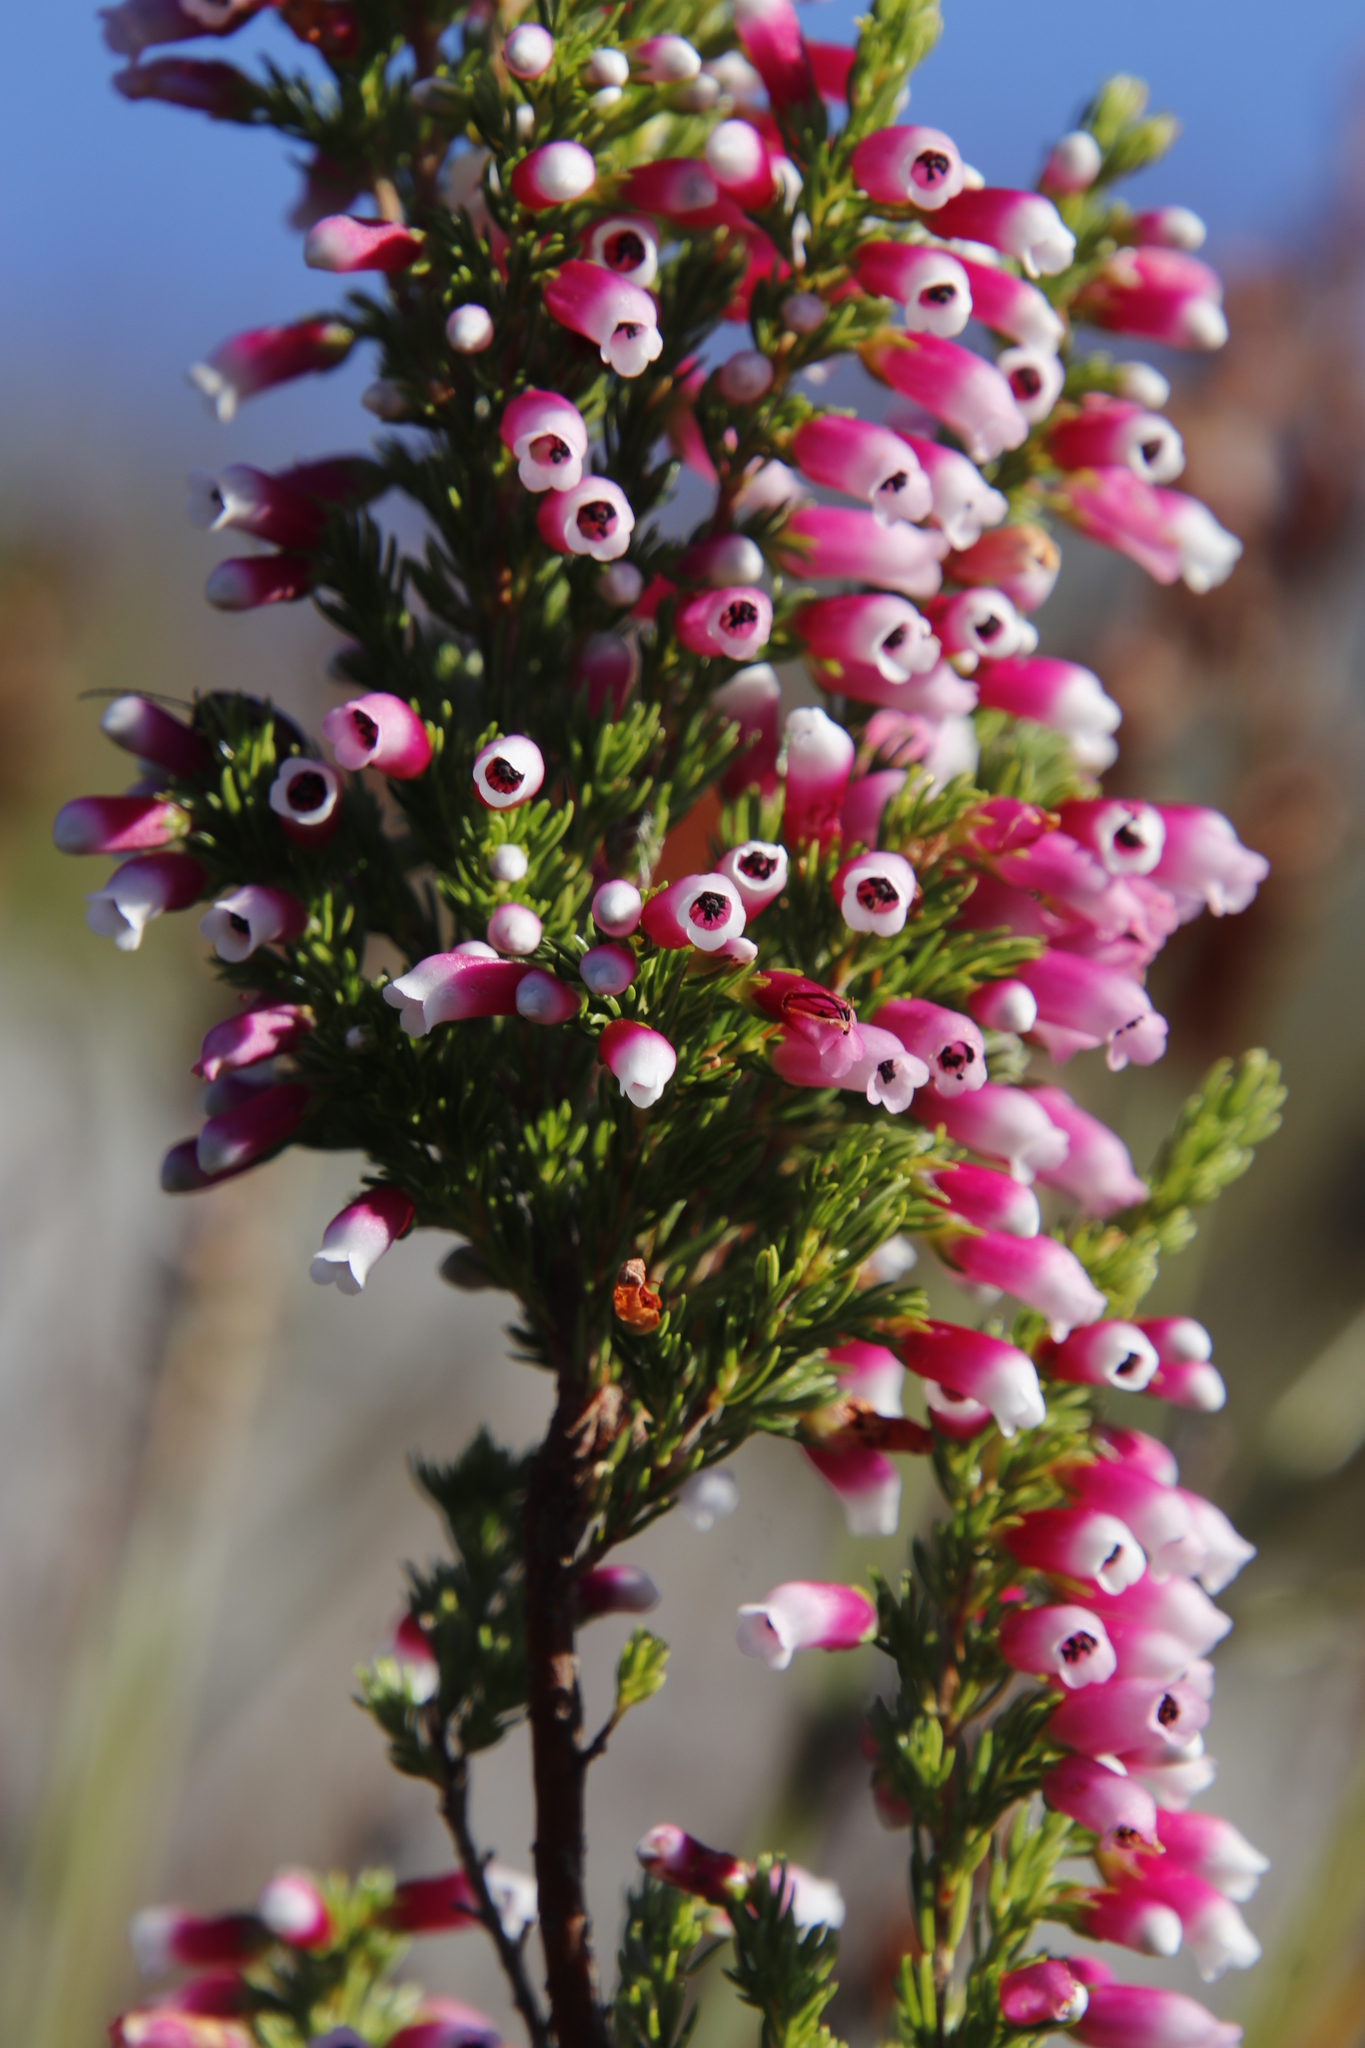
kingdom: Plantae
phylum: Tracheophyta
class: Magnoliopsida
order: Ericales
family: Ericaceae
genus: Erica
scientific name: Erica sitiens
